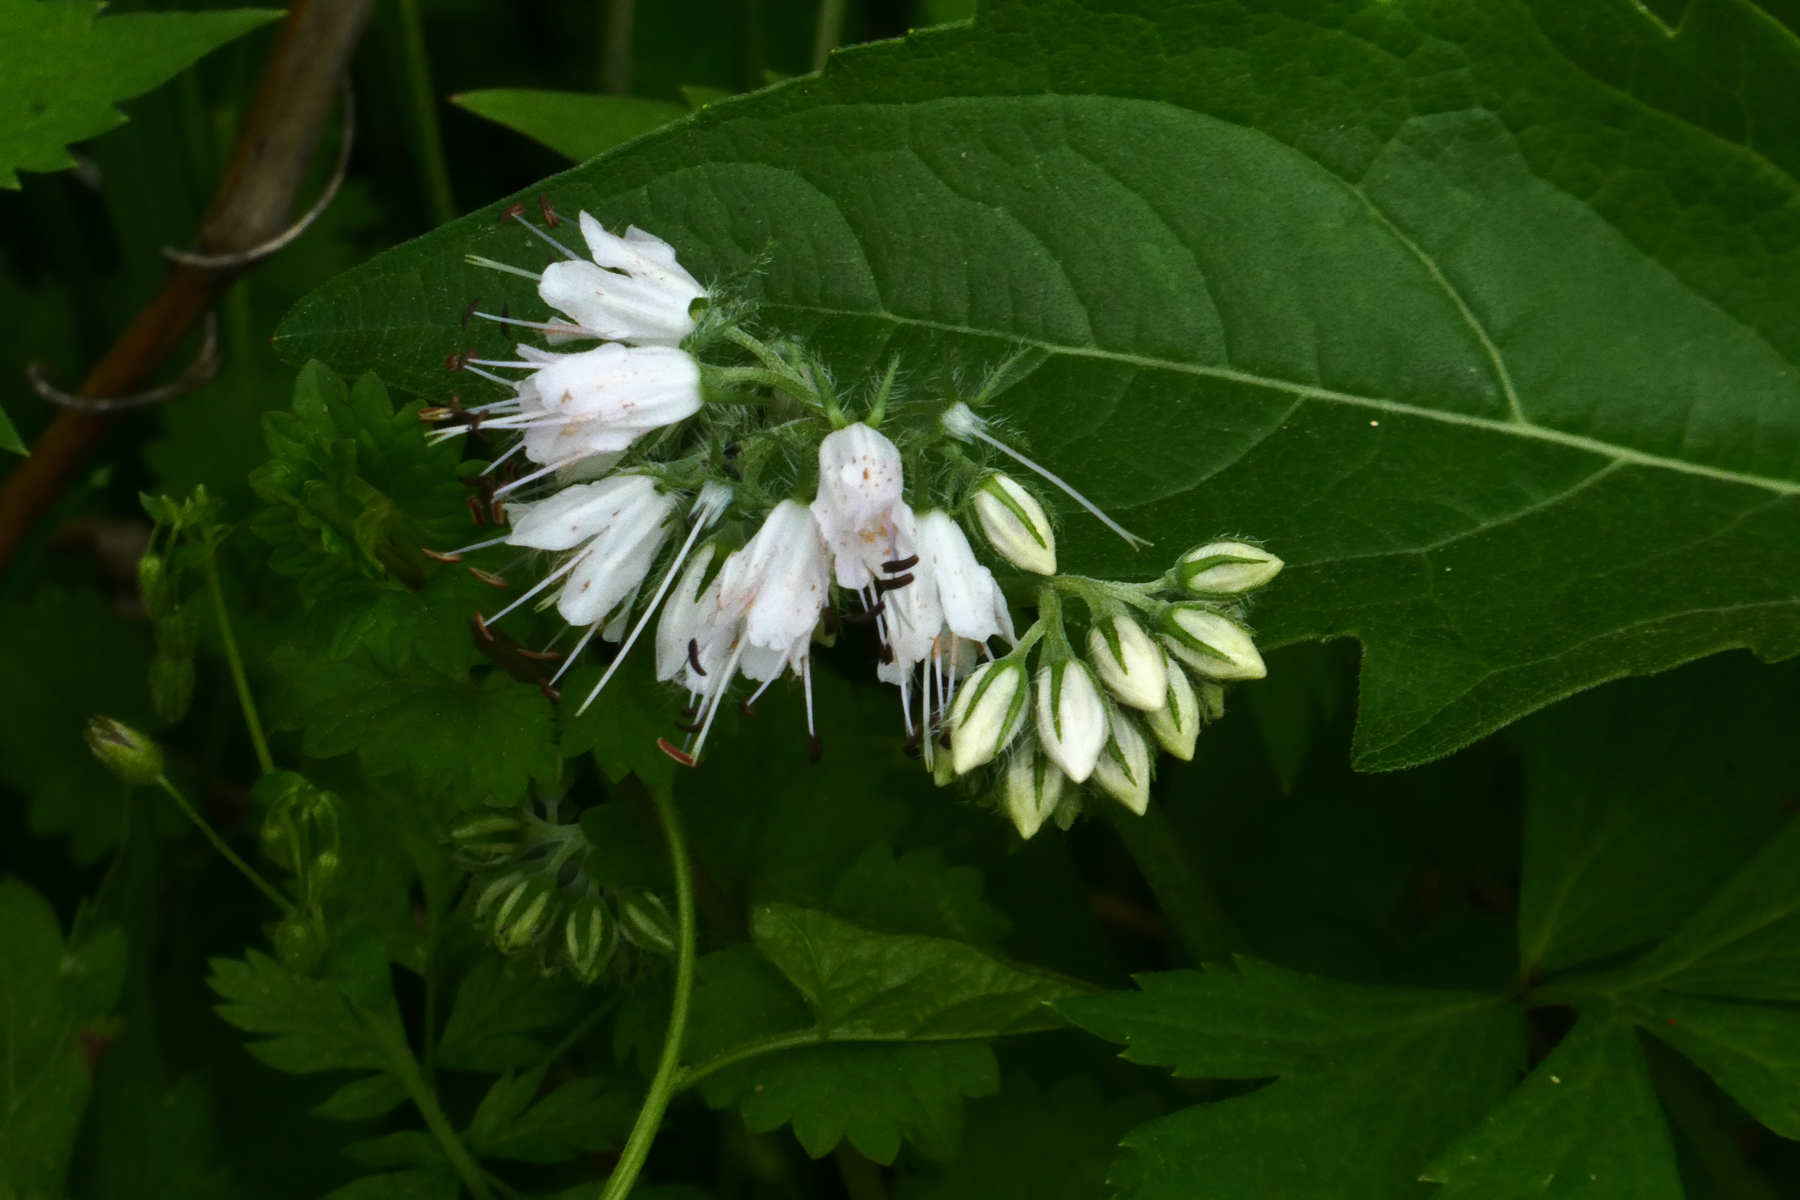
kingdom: Plantae
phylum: Tracheophyta
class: Magnoliopsida
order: Boraginales
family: Hydrophyllaceae
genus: Hydrophyllum
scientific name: Hydrophyllum virginianum
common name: Virginia waterleaf
